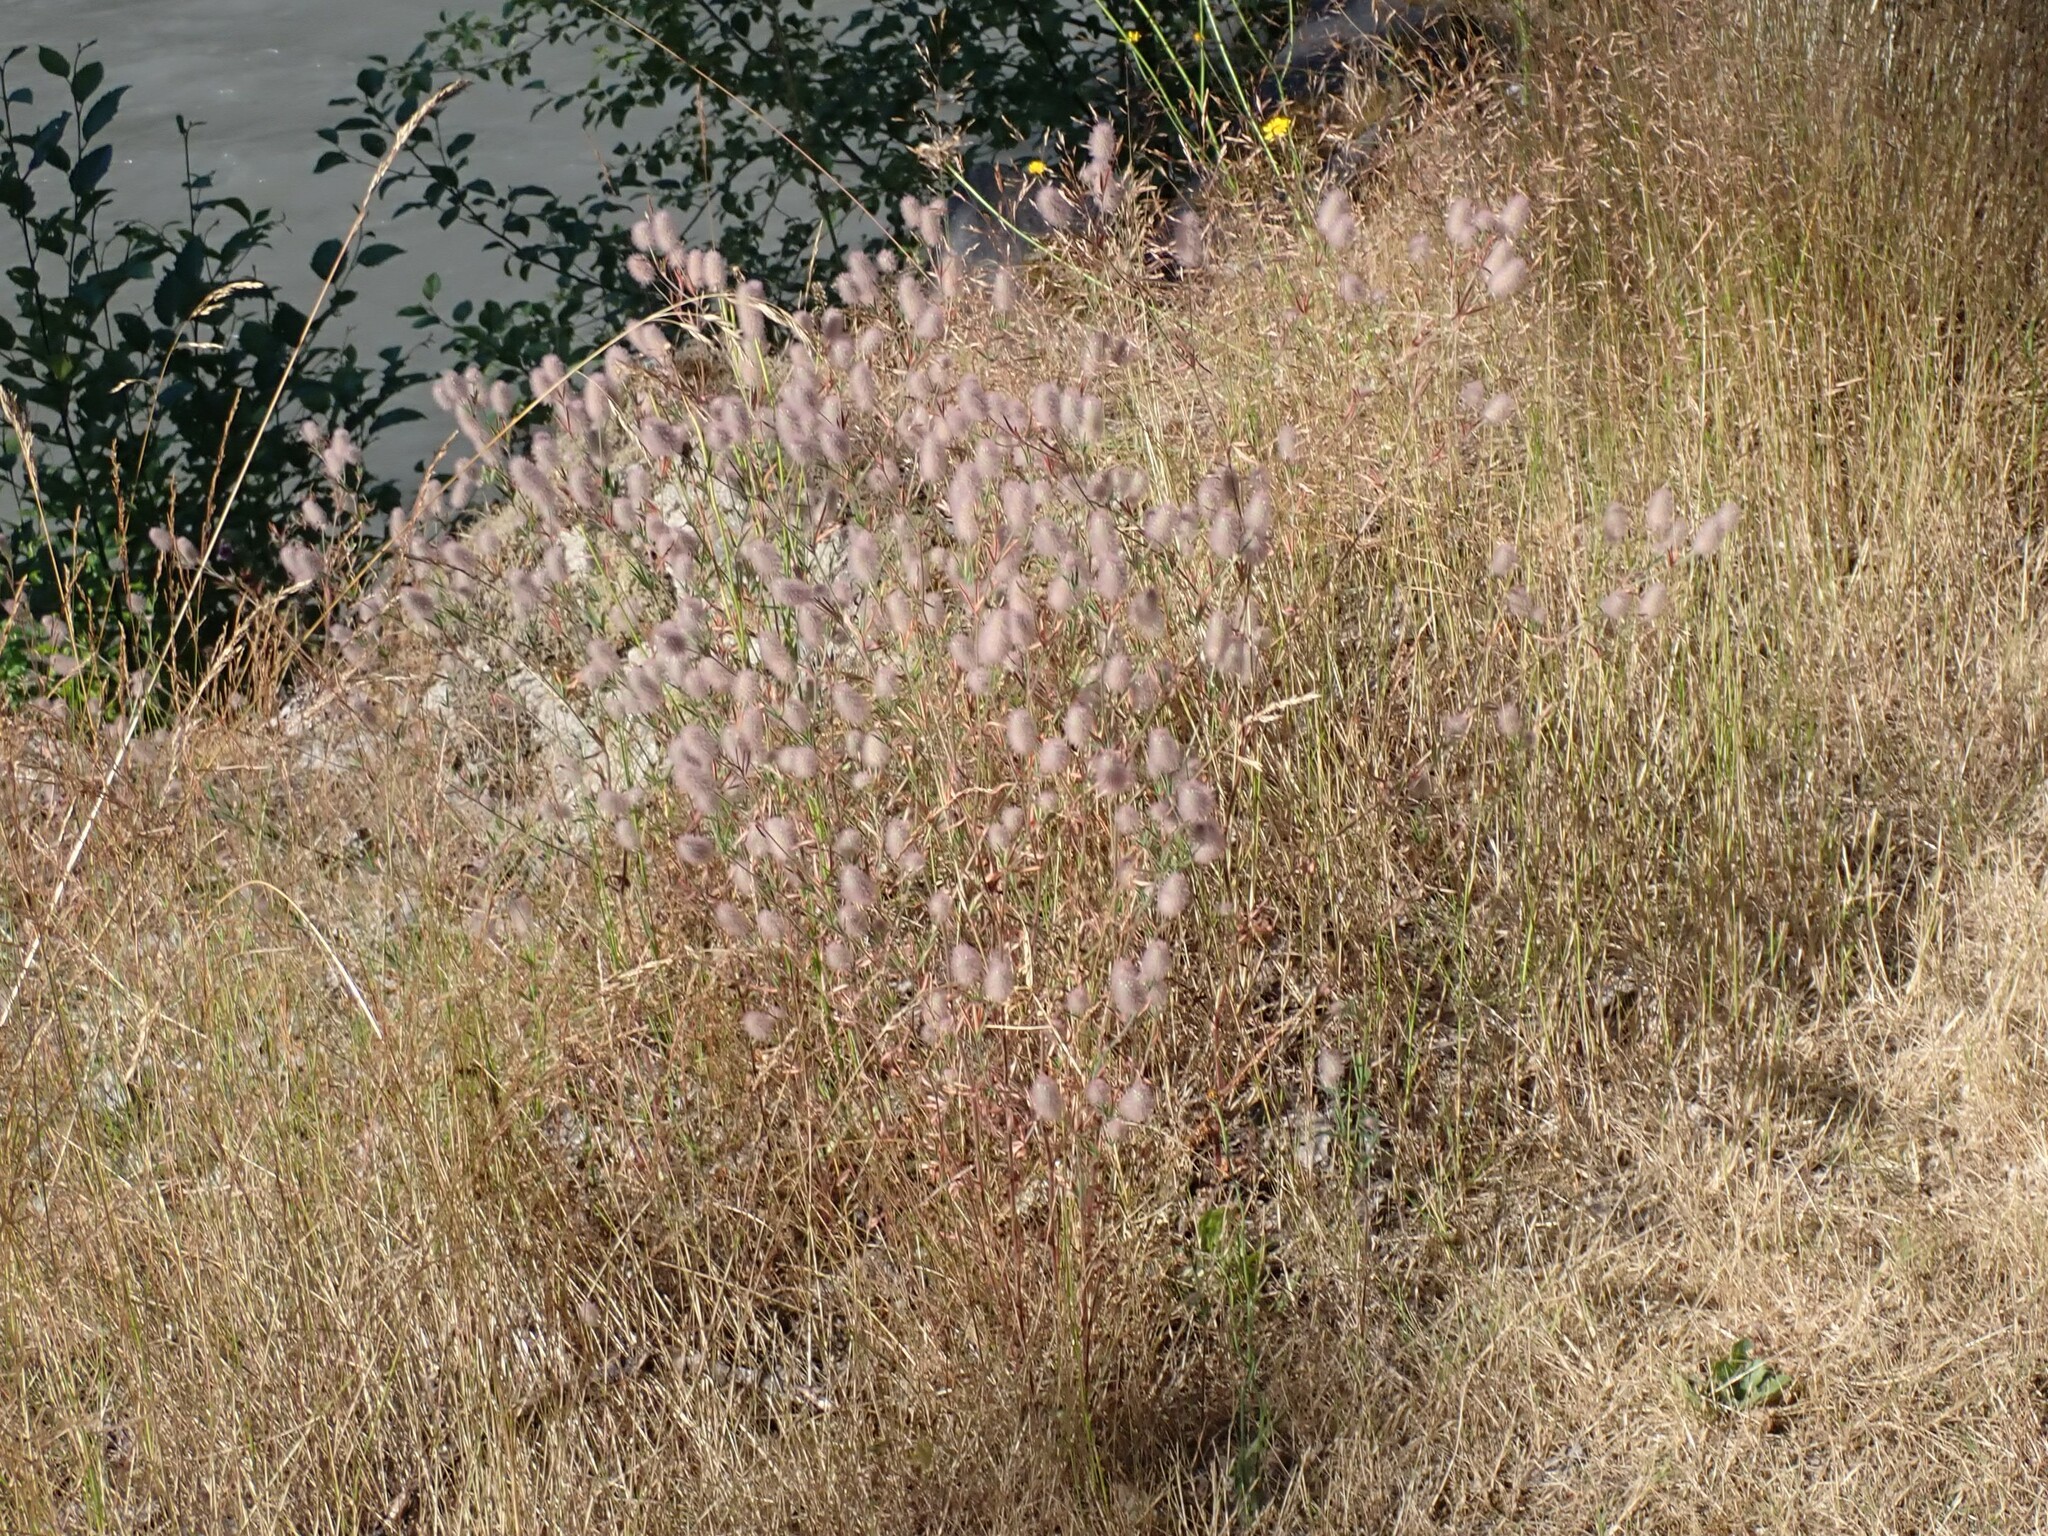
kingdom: Plantae
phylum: Tracheophyta
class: Magnoliopsida
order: Fabales
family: Fabaceae
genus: Trifolium
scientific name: Trifolium arvense
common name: Hare's-foot clover
